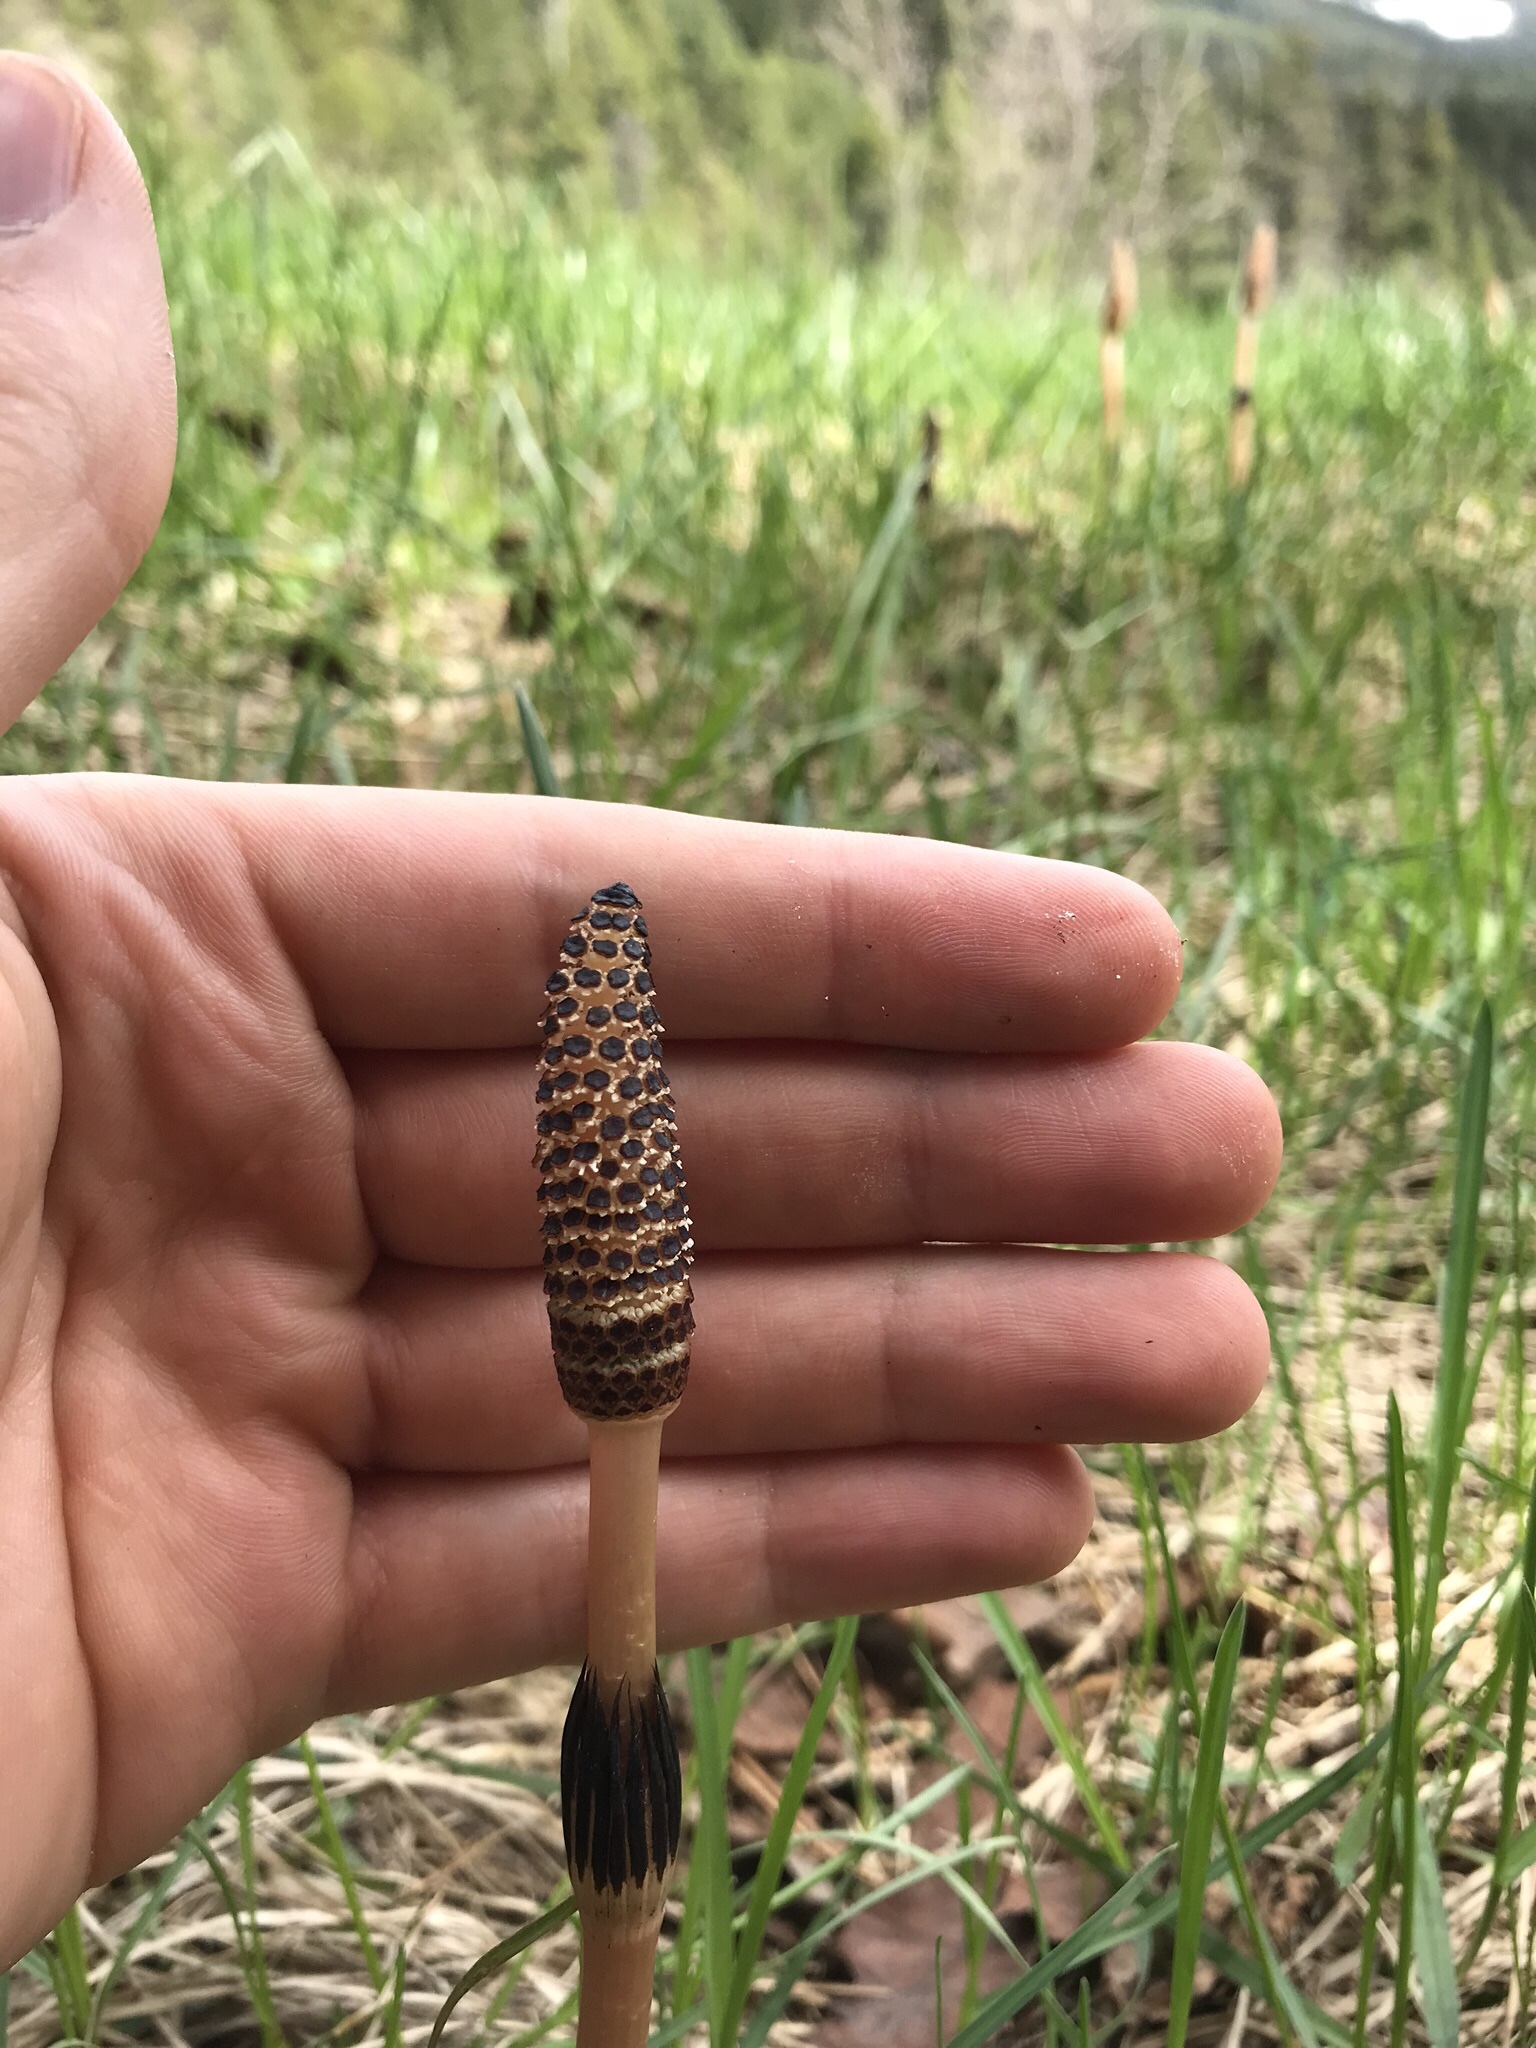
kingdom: Plantae
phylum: Tracheophyta
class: Polypodiopsida
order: Equisetales
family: Equisetaceae
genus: Equisetum
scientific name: Equisetum arvense
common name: Field horsetail
